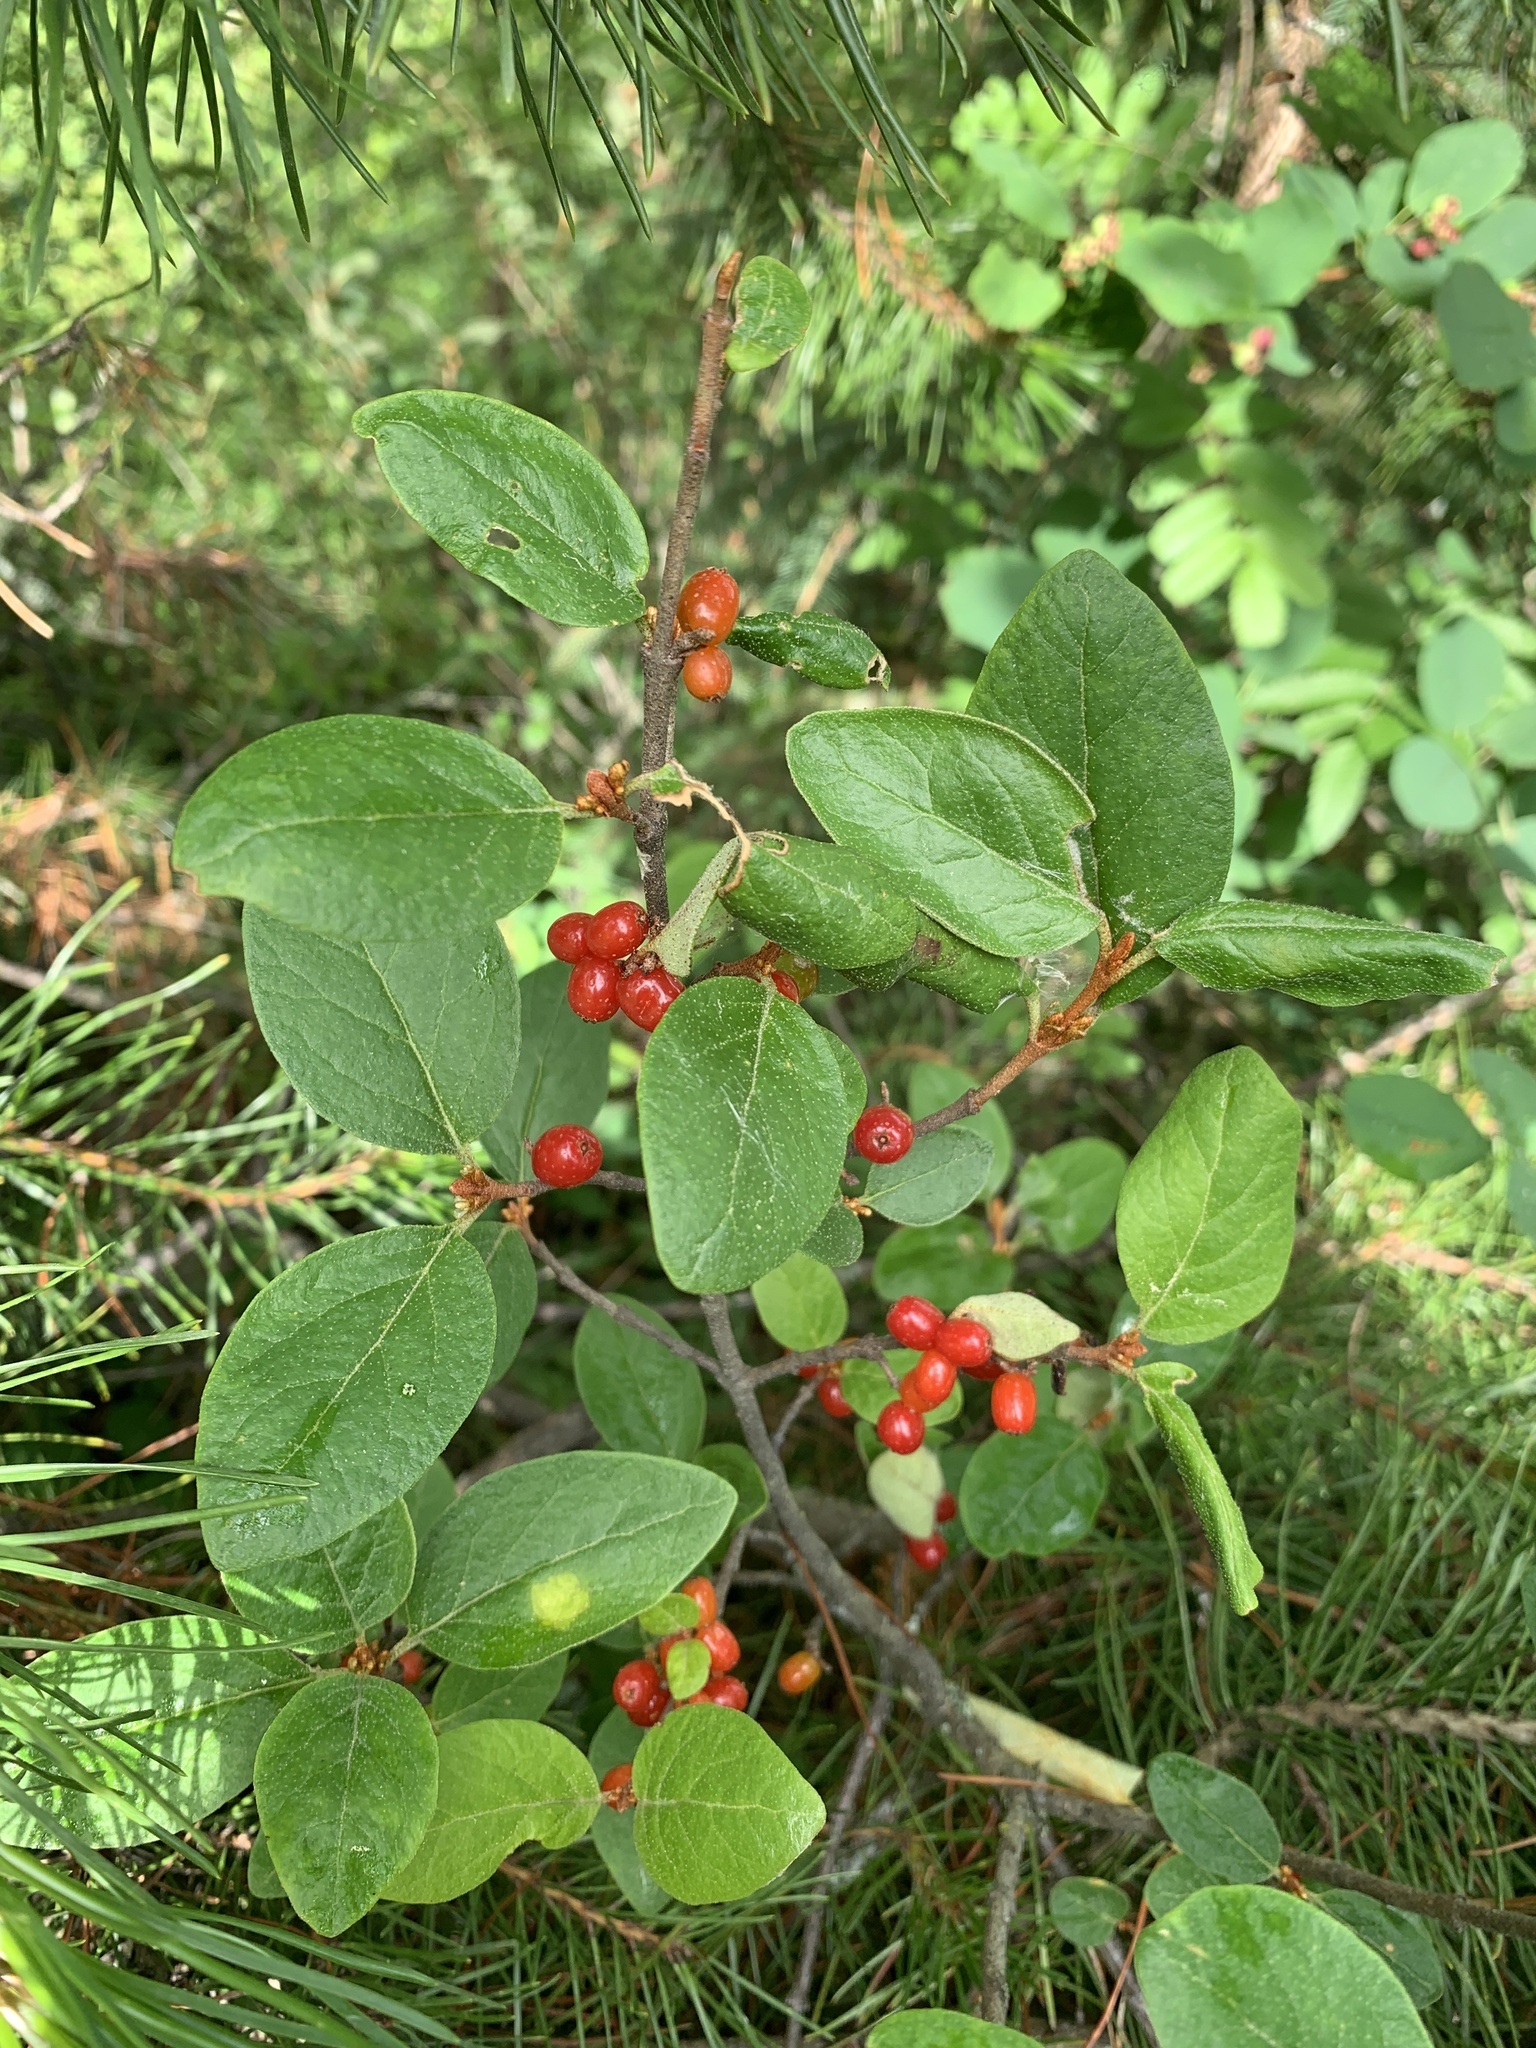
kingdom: Plantae
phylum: Tracheophyta
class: Magnoliopsida
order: Rosales
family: Elaeagnaceae
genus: Shepherdia
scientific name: Shepherdia canadensis
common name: Soapberry
